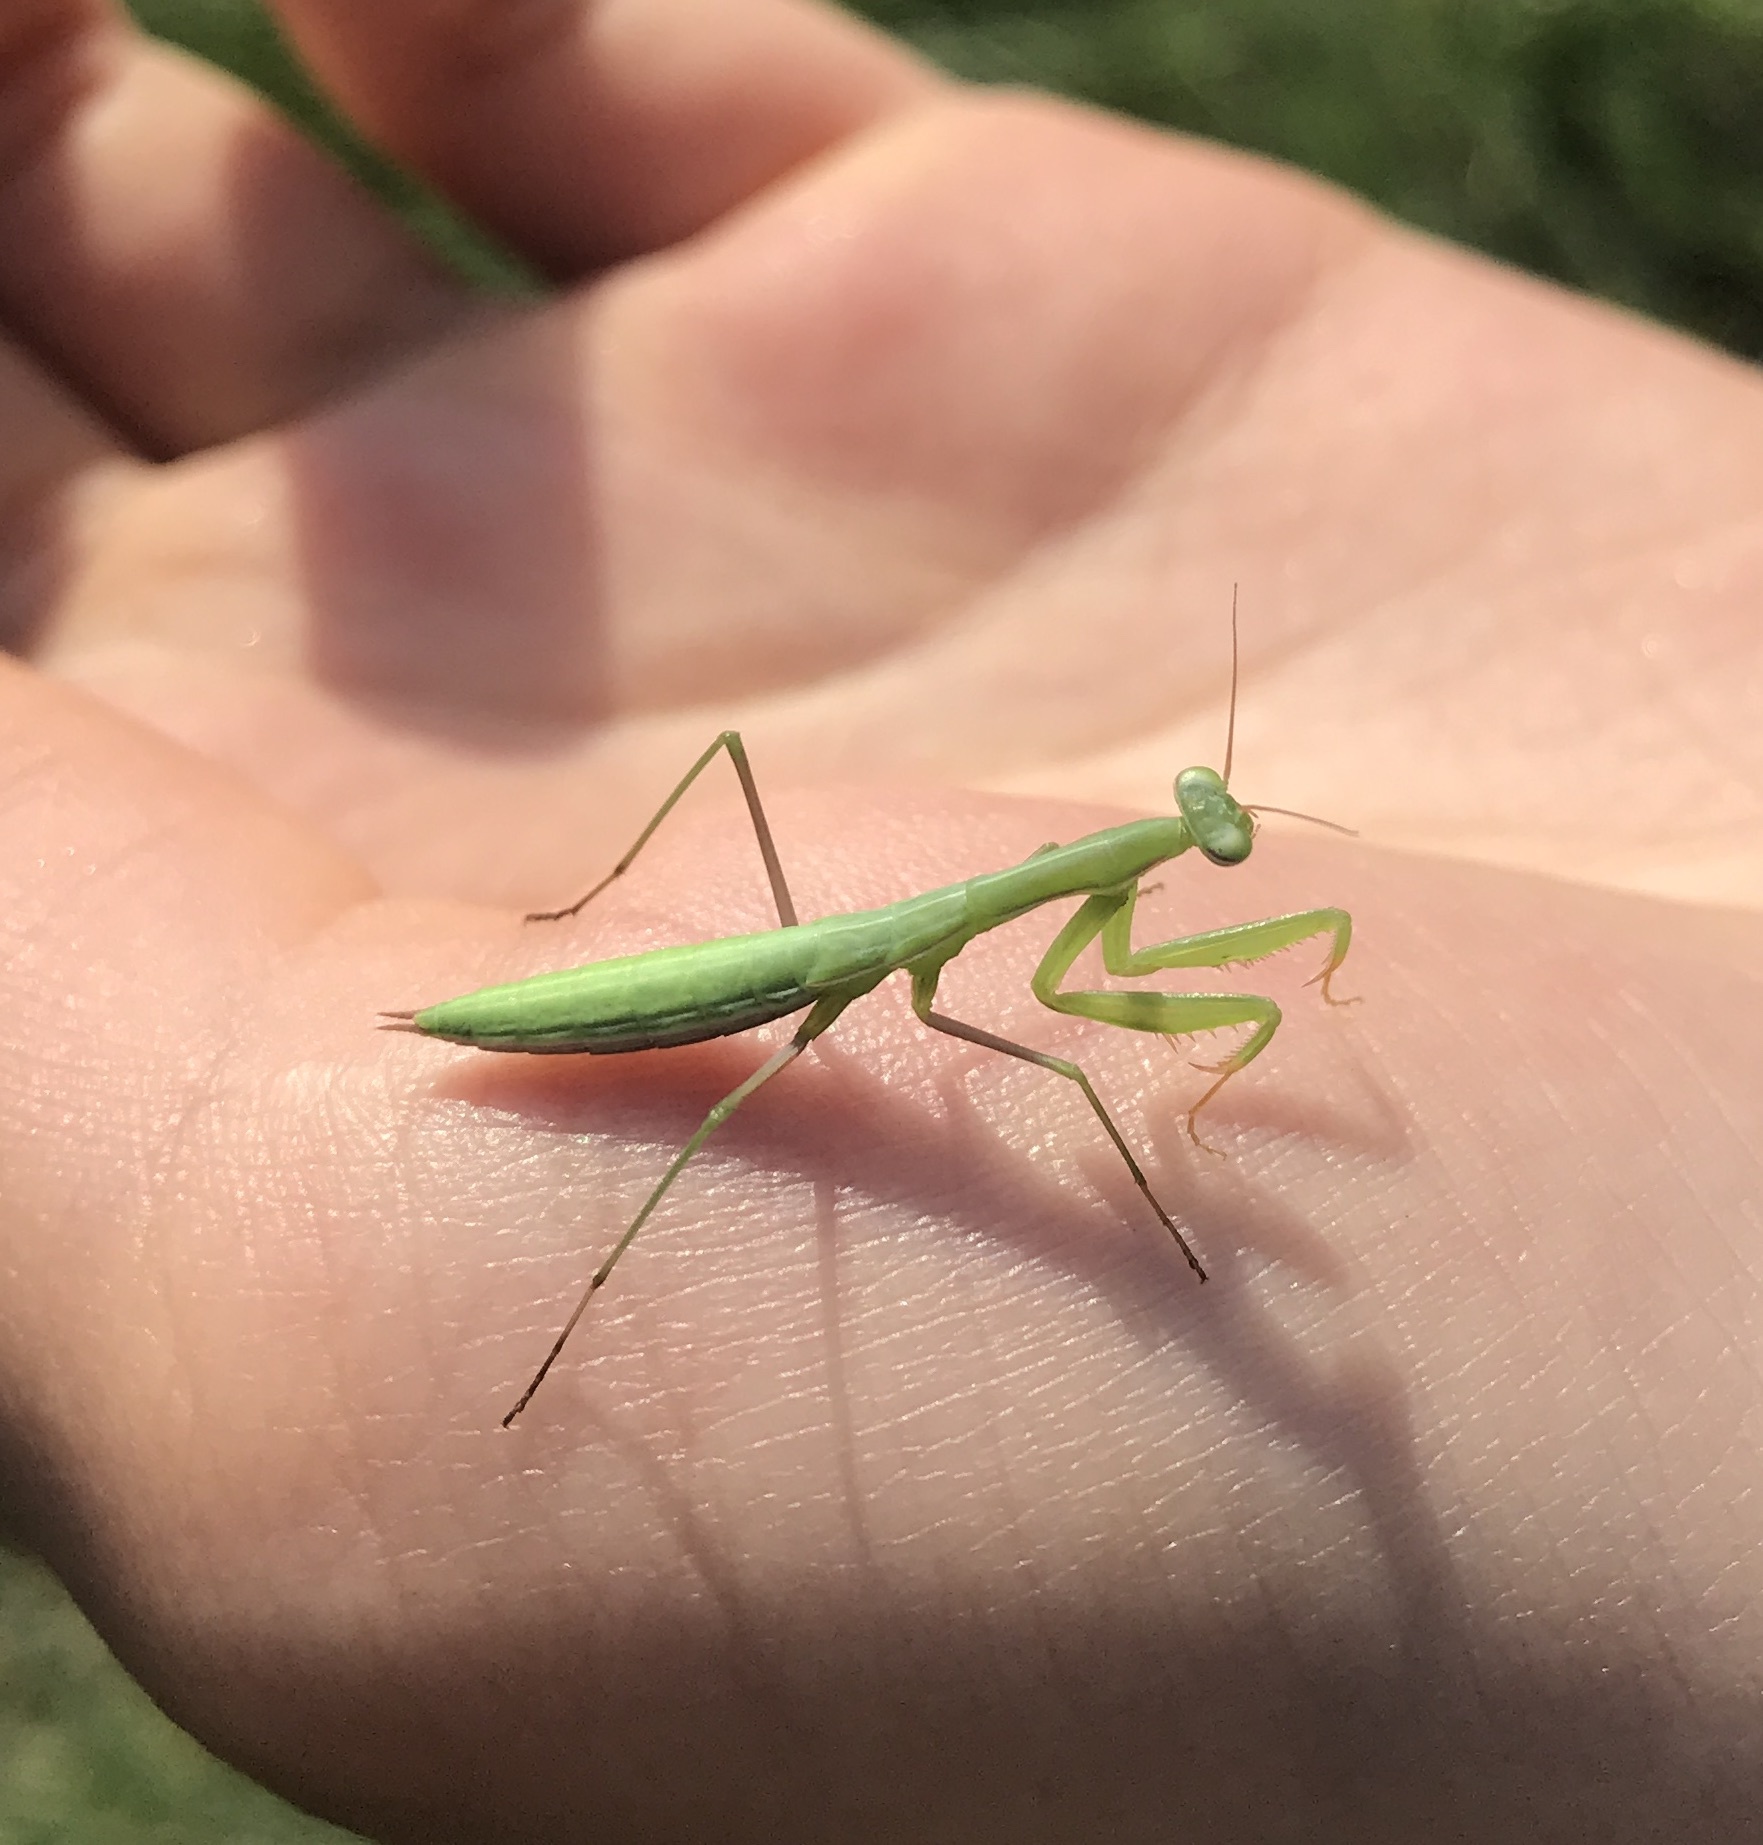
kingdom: Animalia
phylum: Arthropoda
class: Insecta
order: Mantodea
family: Mantidae
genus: Mantis
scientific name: Mantis religiosa
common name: Praying mantis
